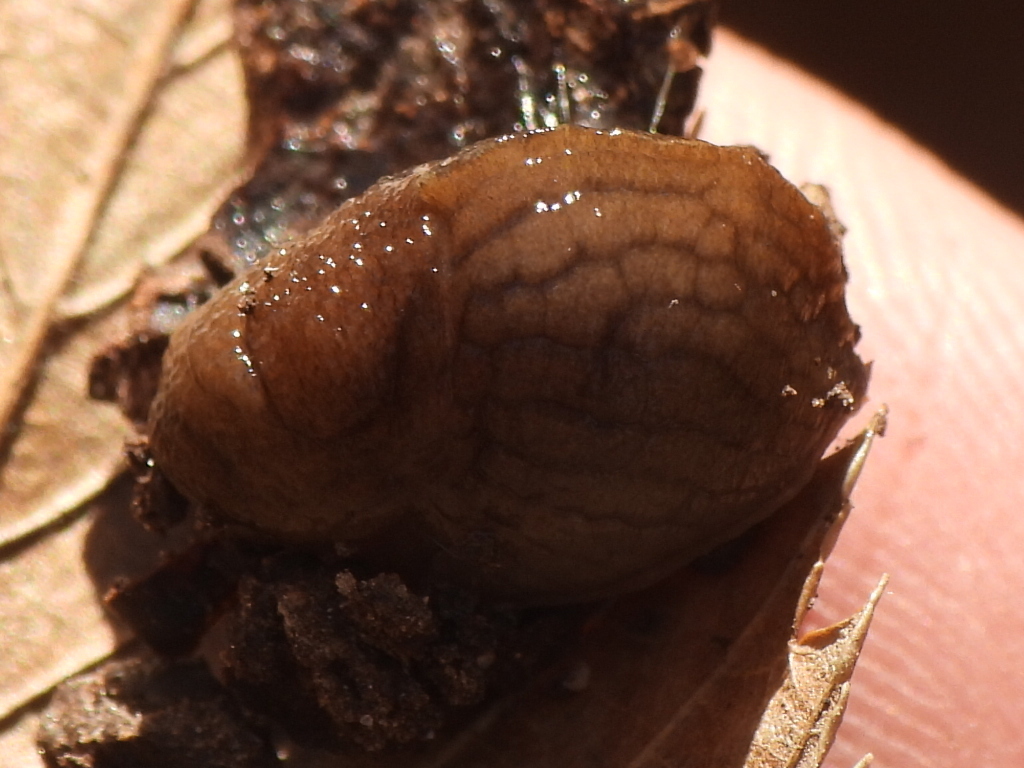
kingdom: Animalia
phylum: Mollusca
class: Gastropoda
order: Stylommatophora
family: Milacidae
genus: Milax
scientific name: Milax gagates
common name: Greenhouse slug
